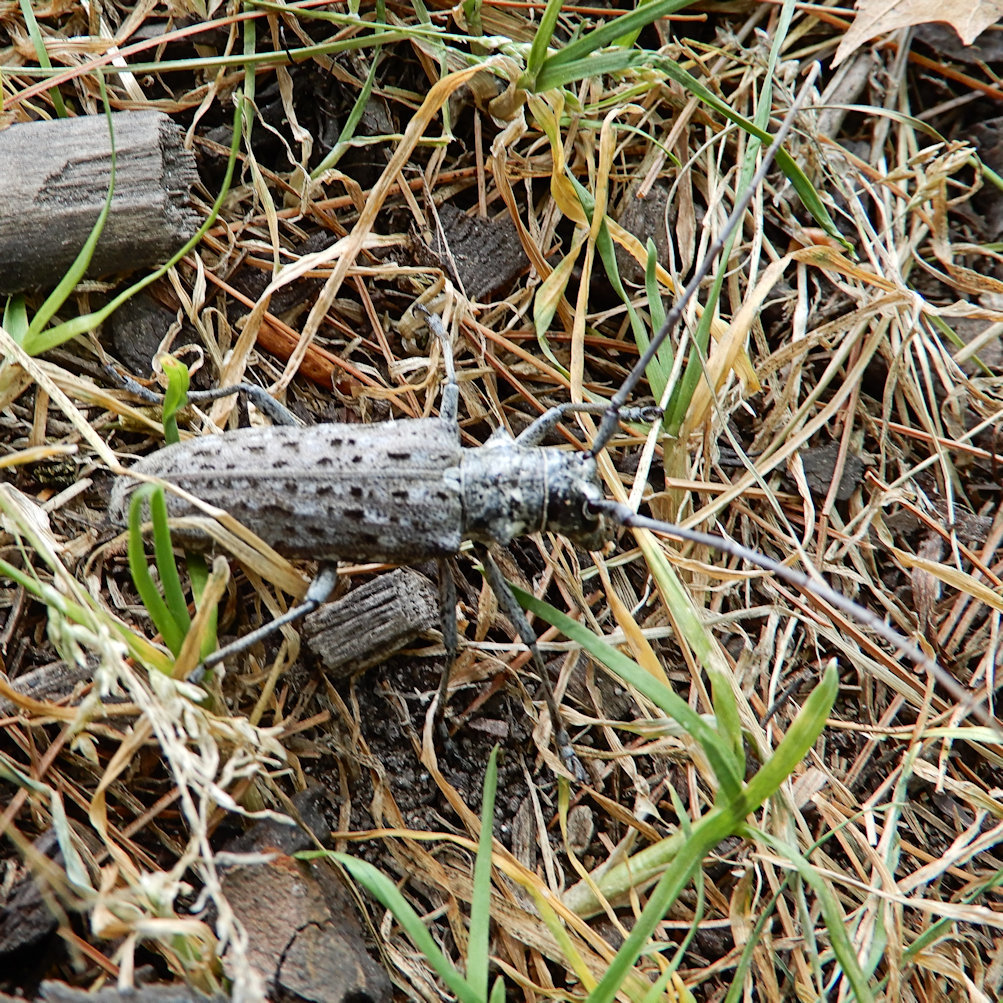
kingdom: Animalia
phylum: Arthropoda
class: Insecta
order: Coleoptera
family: Cerambycidae
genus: Monochamus
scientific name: Monochamus notatus
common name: Northeastern pine sawyer beetle
